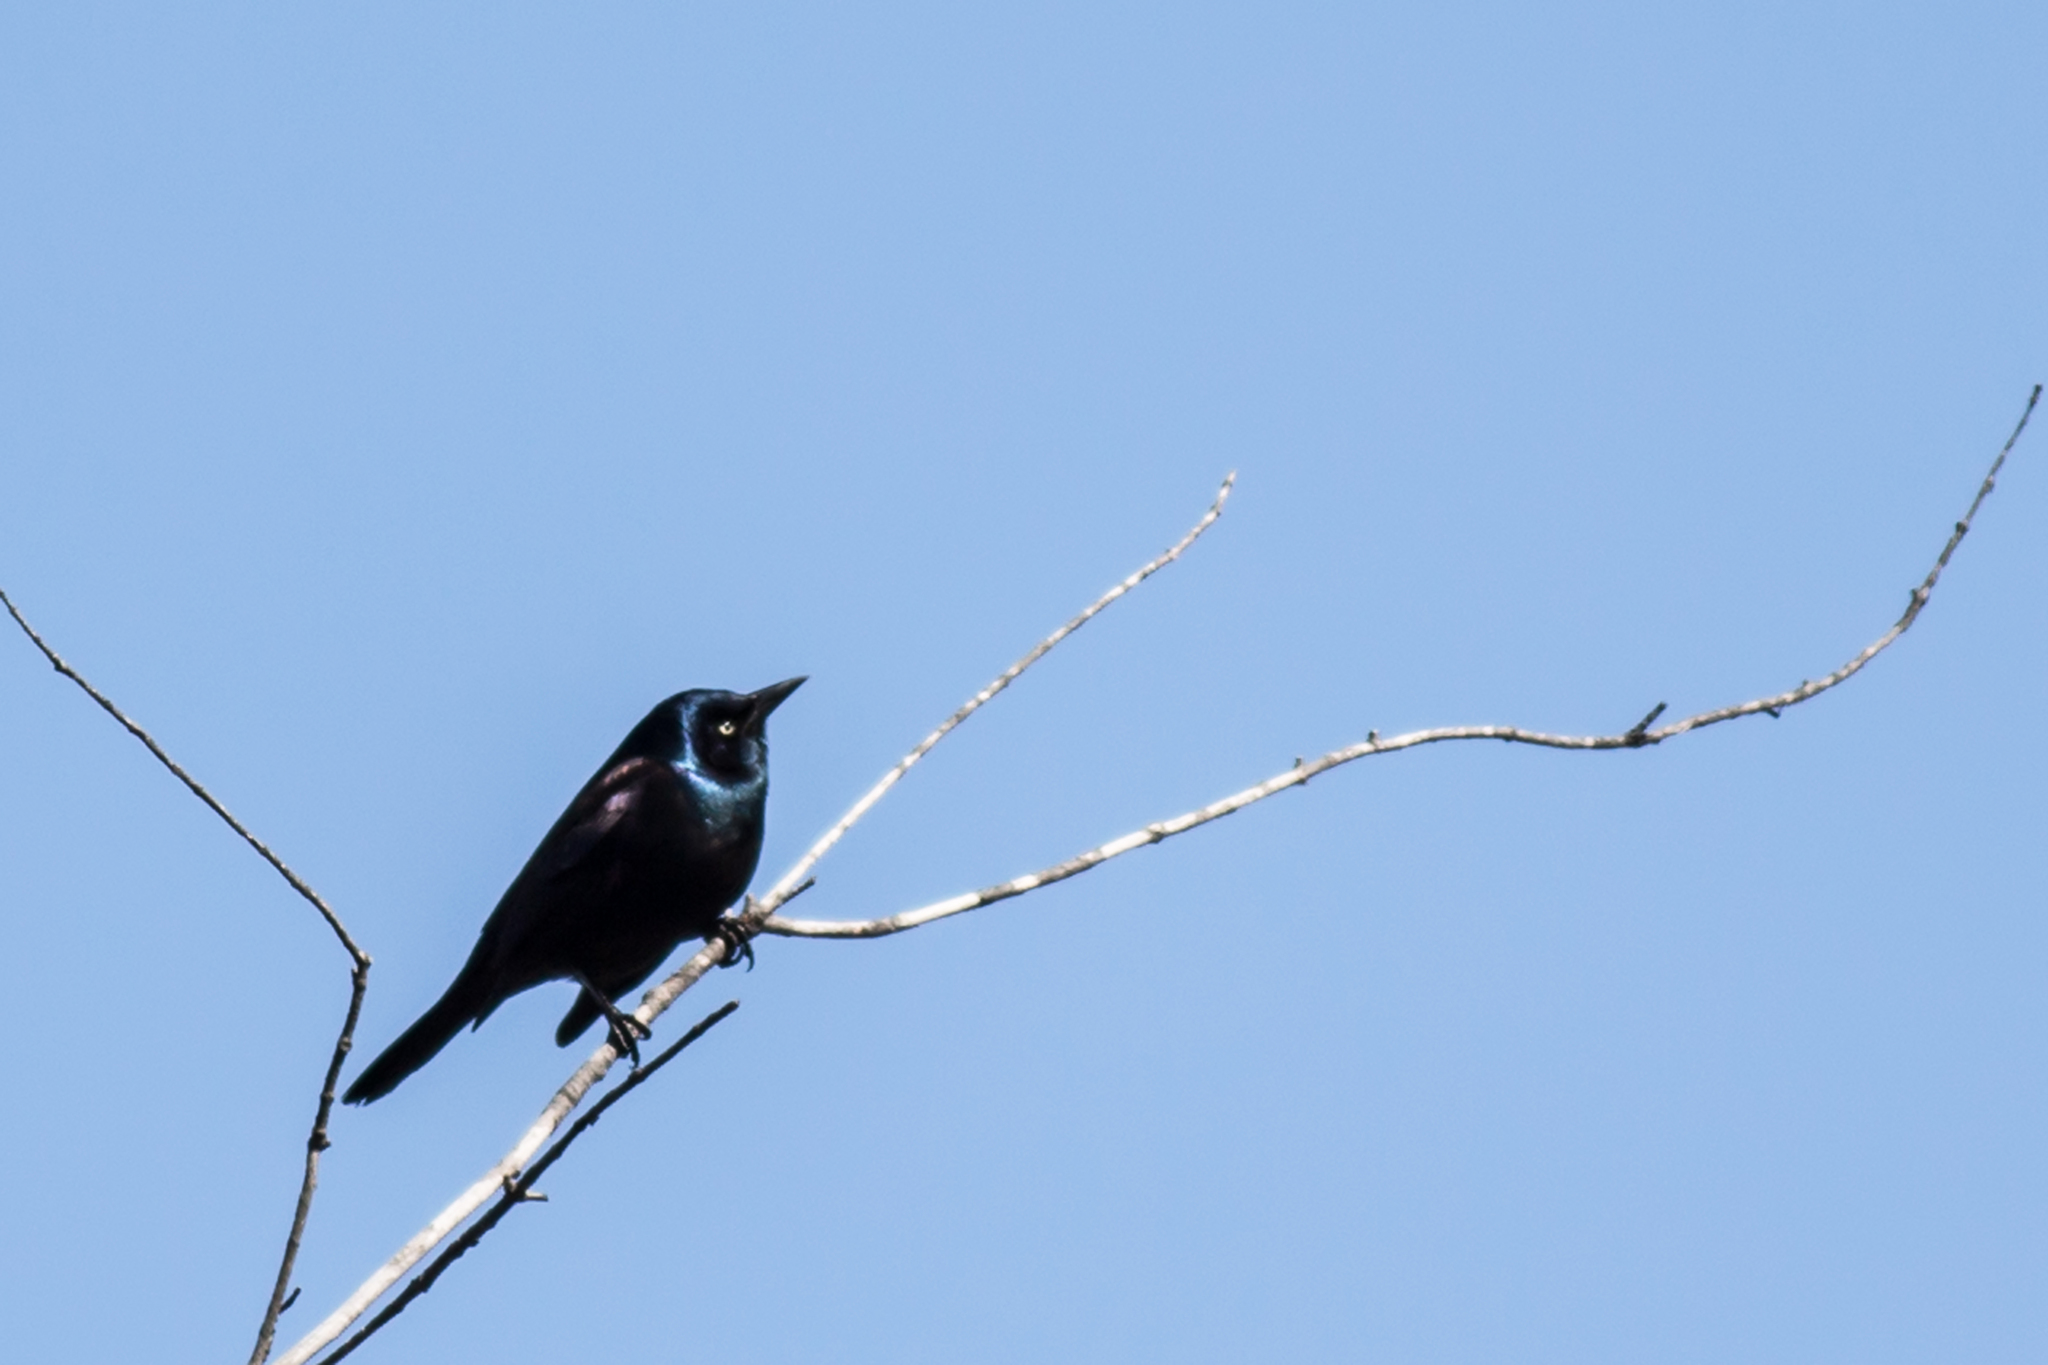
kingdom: Animalia
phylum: Chordata
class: Aves
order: Passeriformes
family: Icteridae
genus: Quiscalus
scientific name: Quiscalus quiscula
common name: Common grackle
